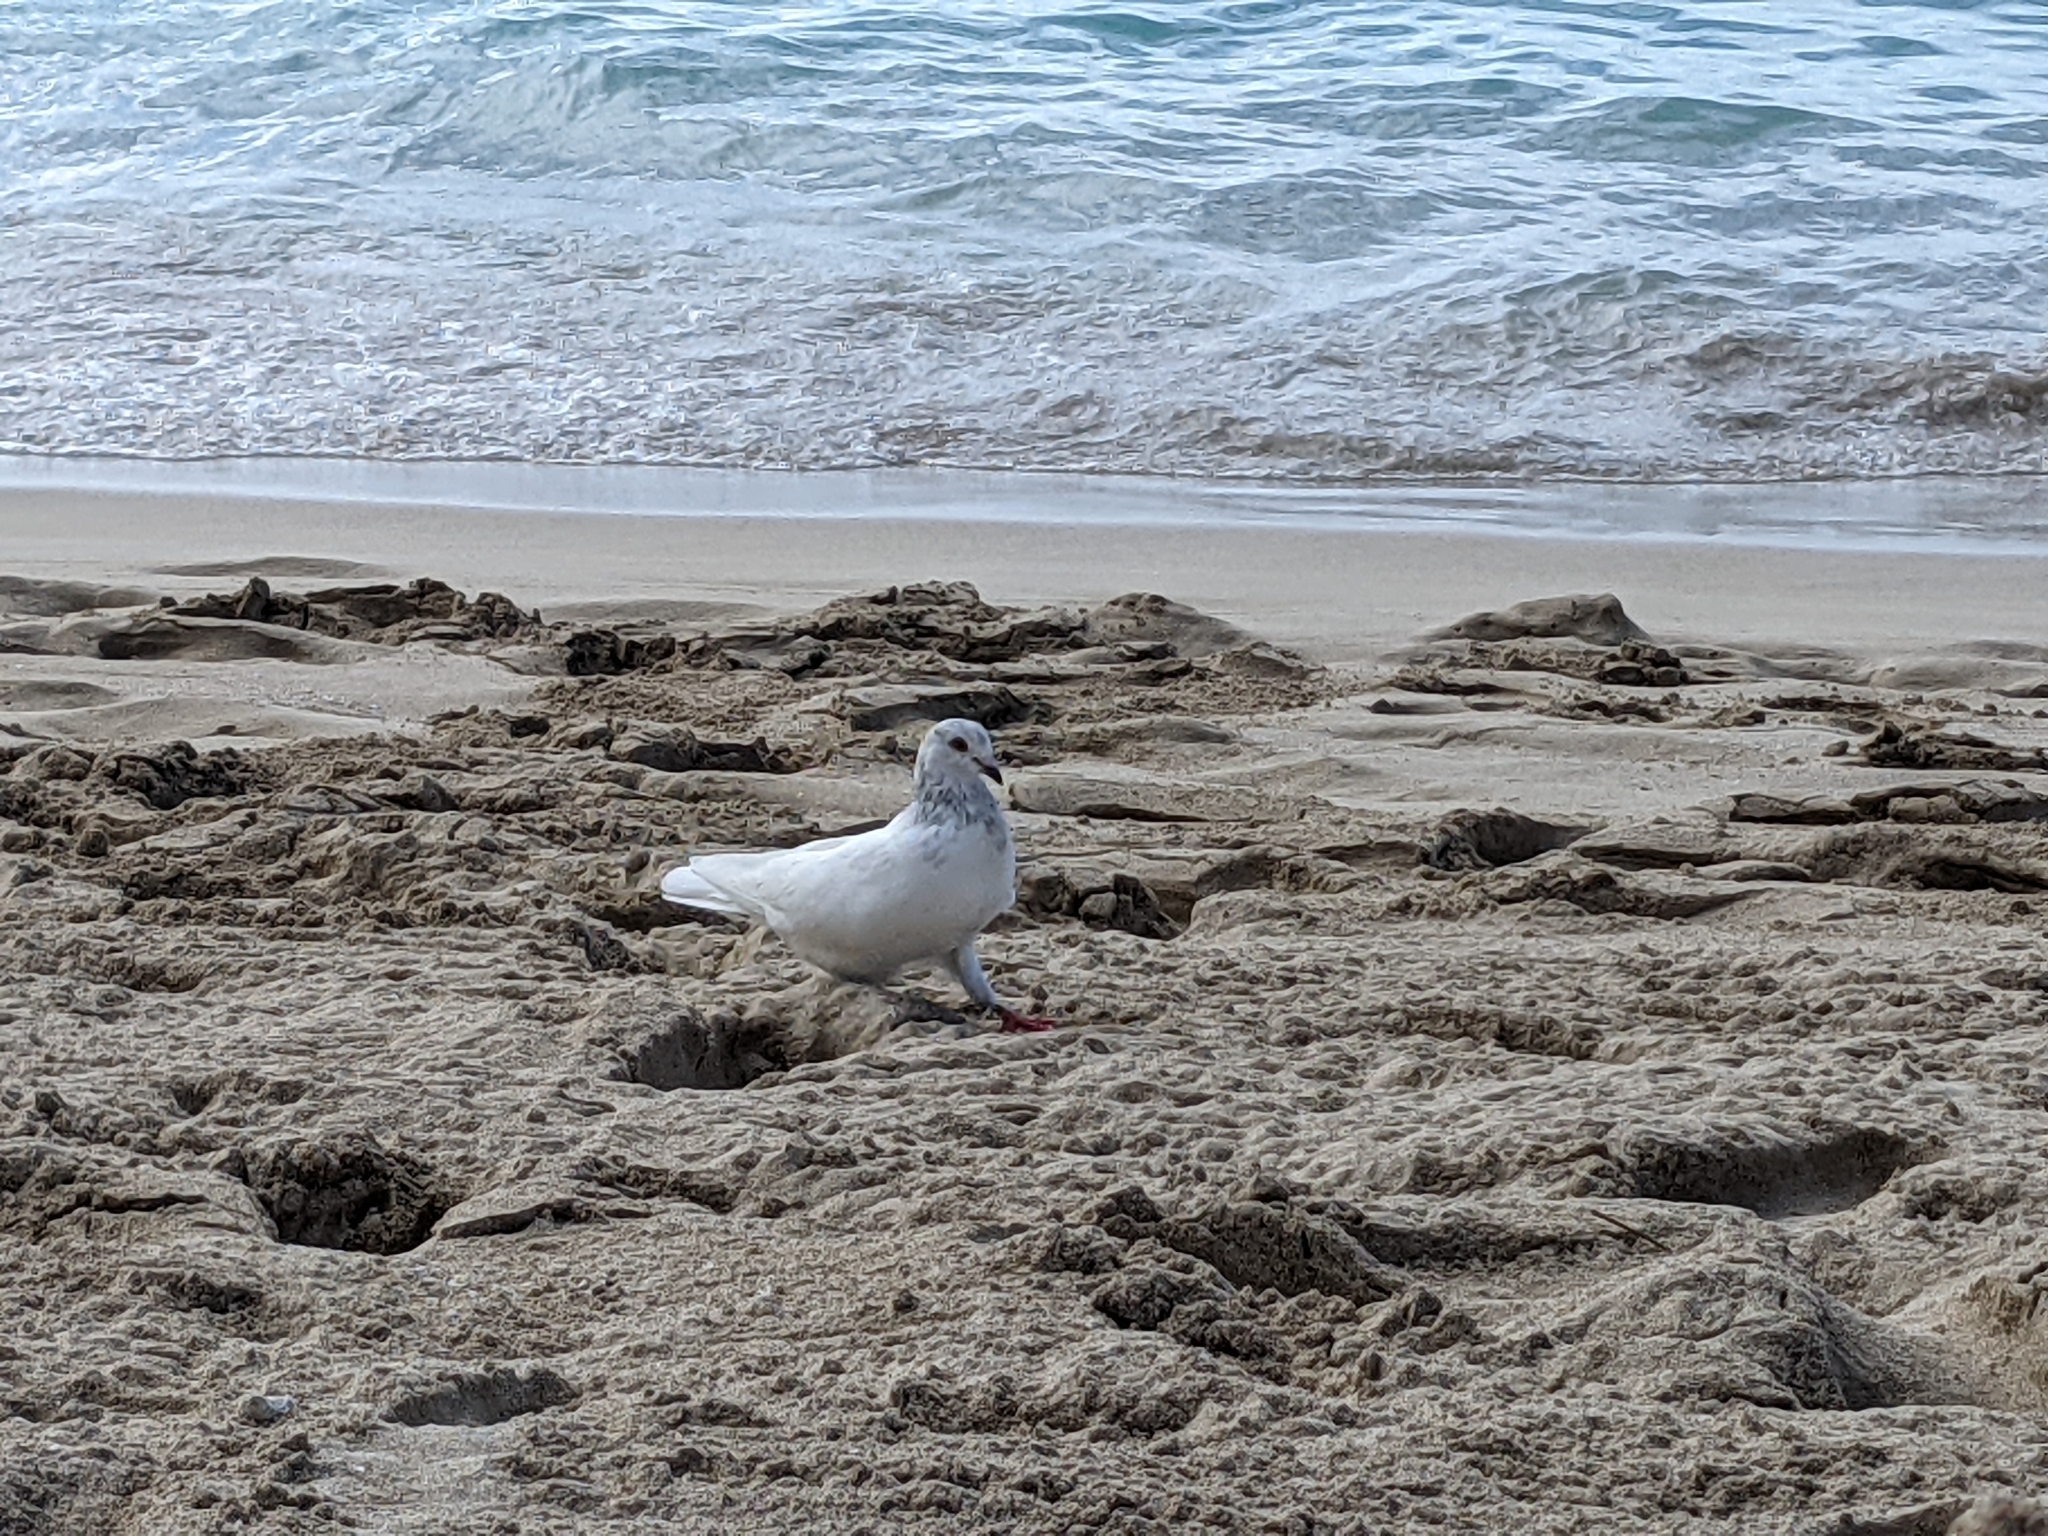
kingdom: Animalia
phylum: Chordata
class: Aves
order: Columbiformes
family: Columbidae
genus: Columba
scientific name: Columba livia
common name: Rock pigeon
